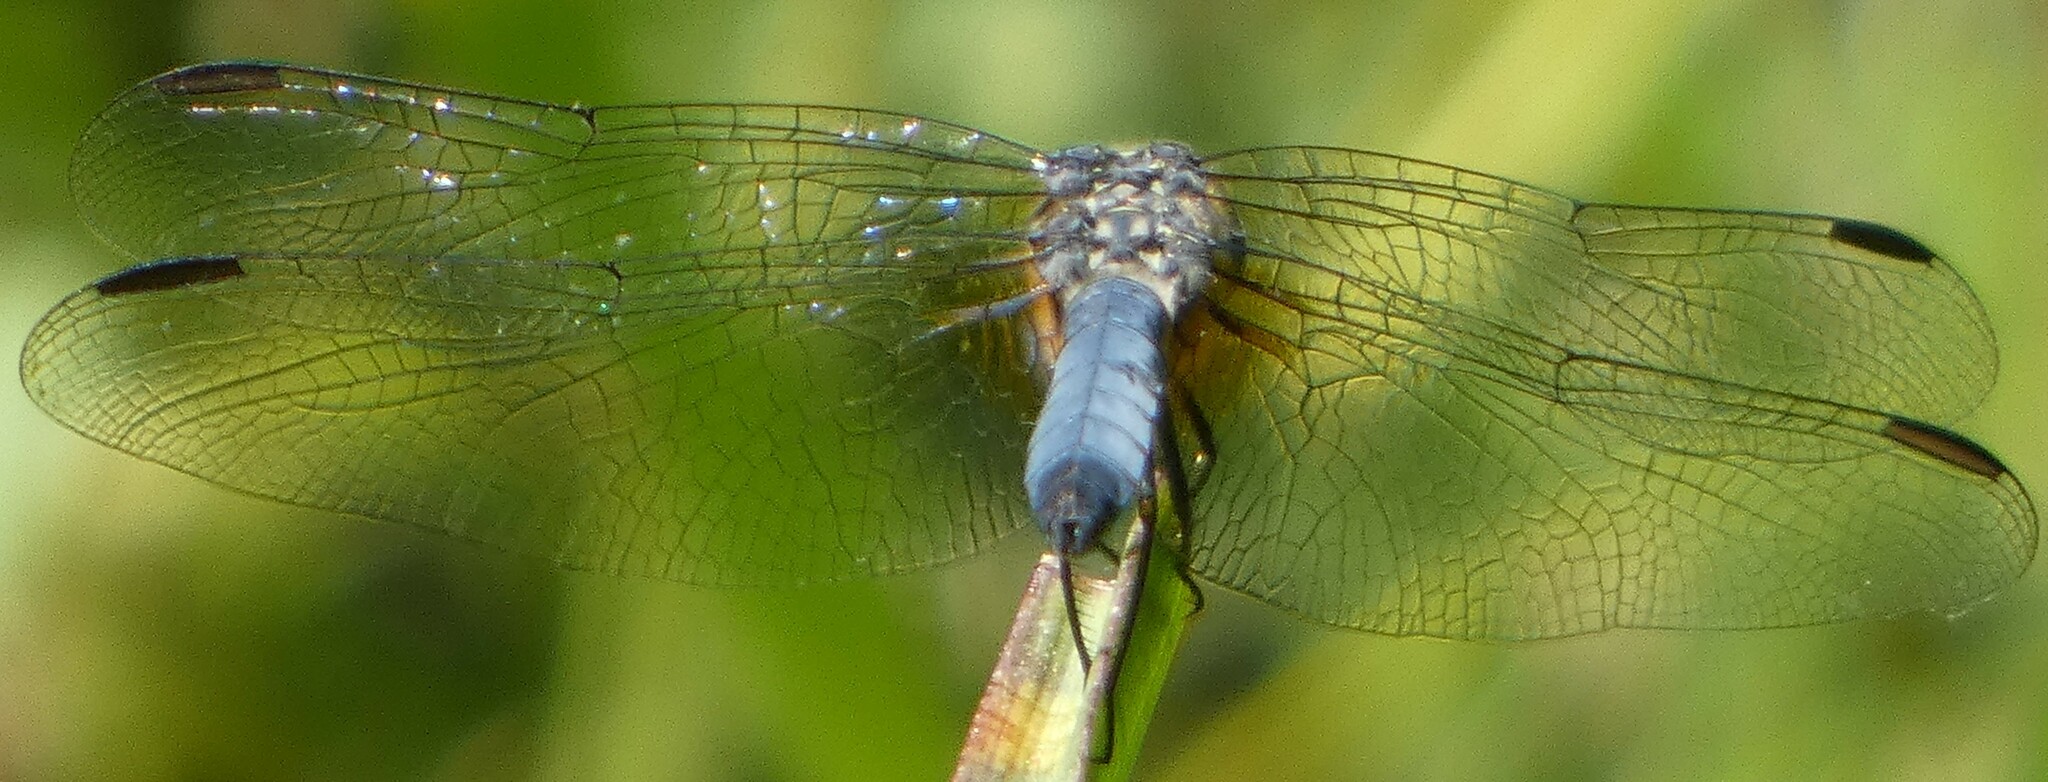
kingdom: Animalia
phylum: Arthropoda
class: Insecta
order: Odonata
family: Libellulidae
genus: Pachydiplax
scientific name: Pachydiplax longipennis
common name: Blue dasher
